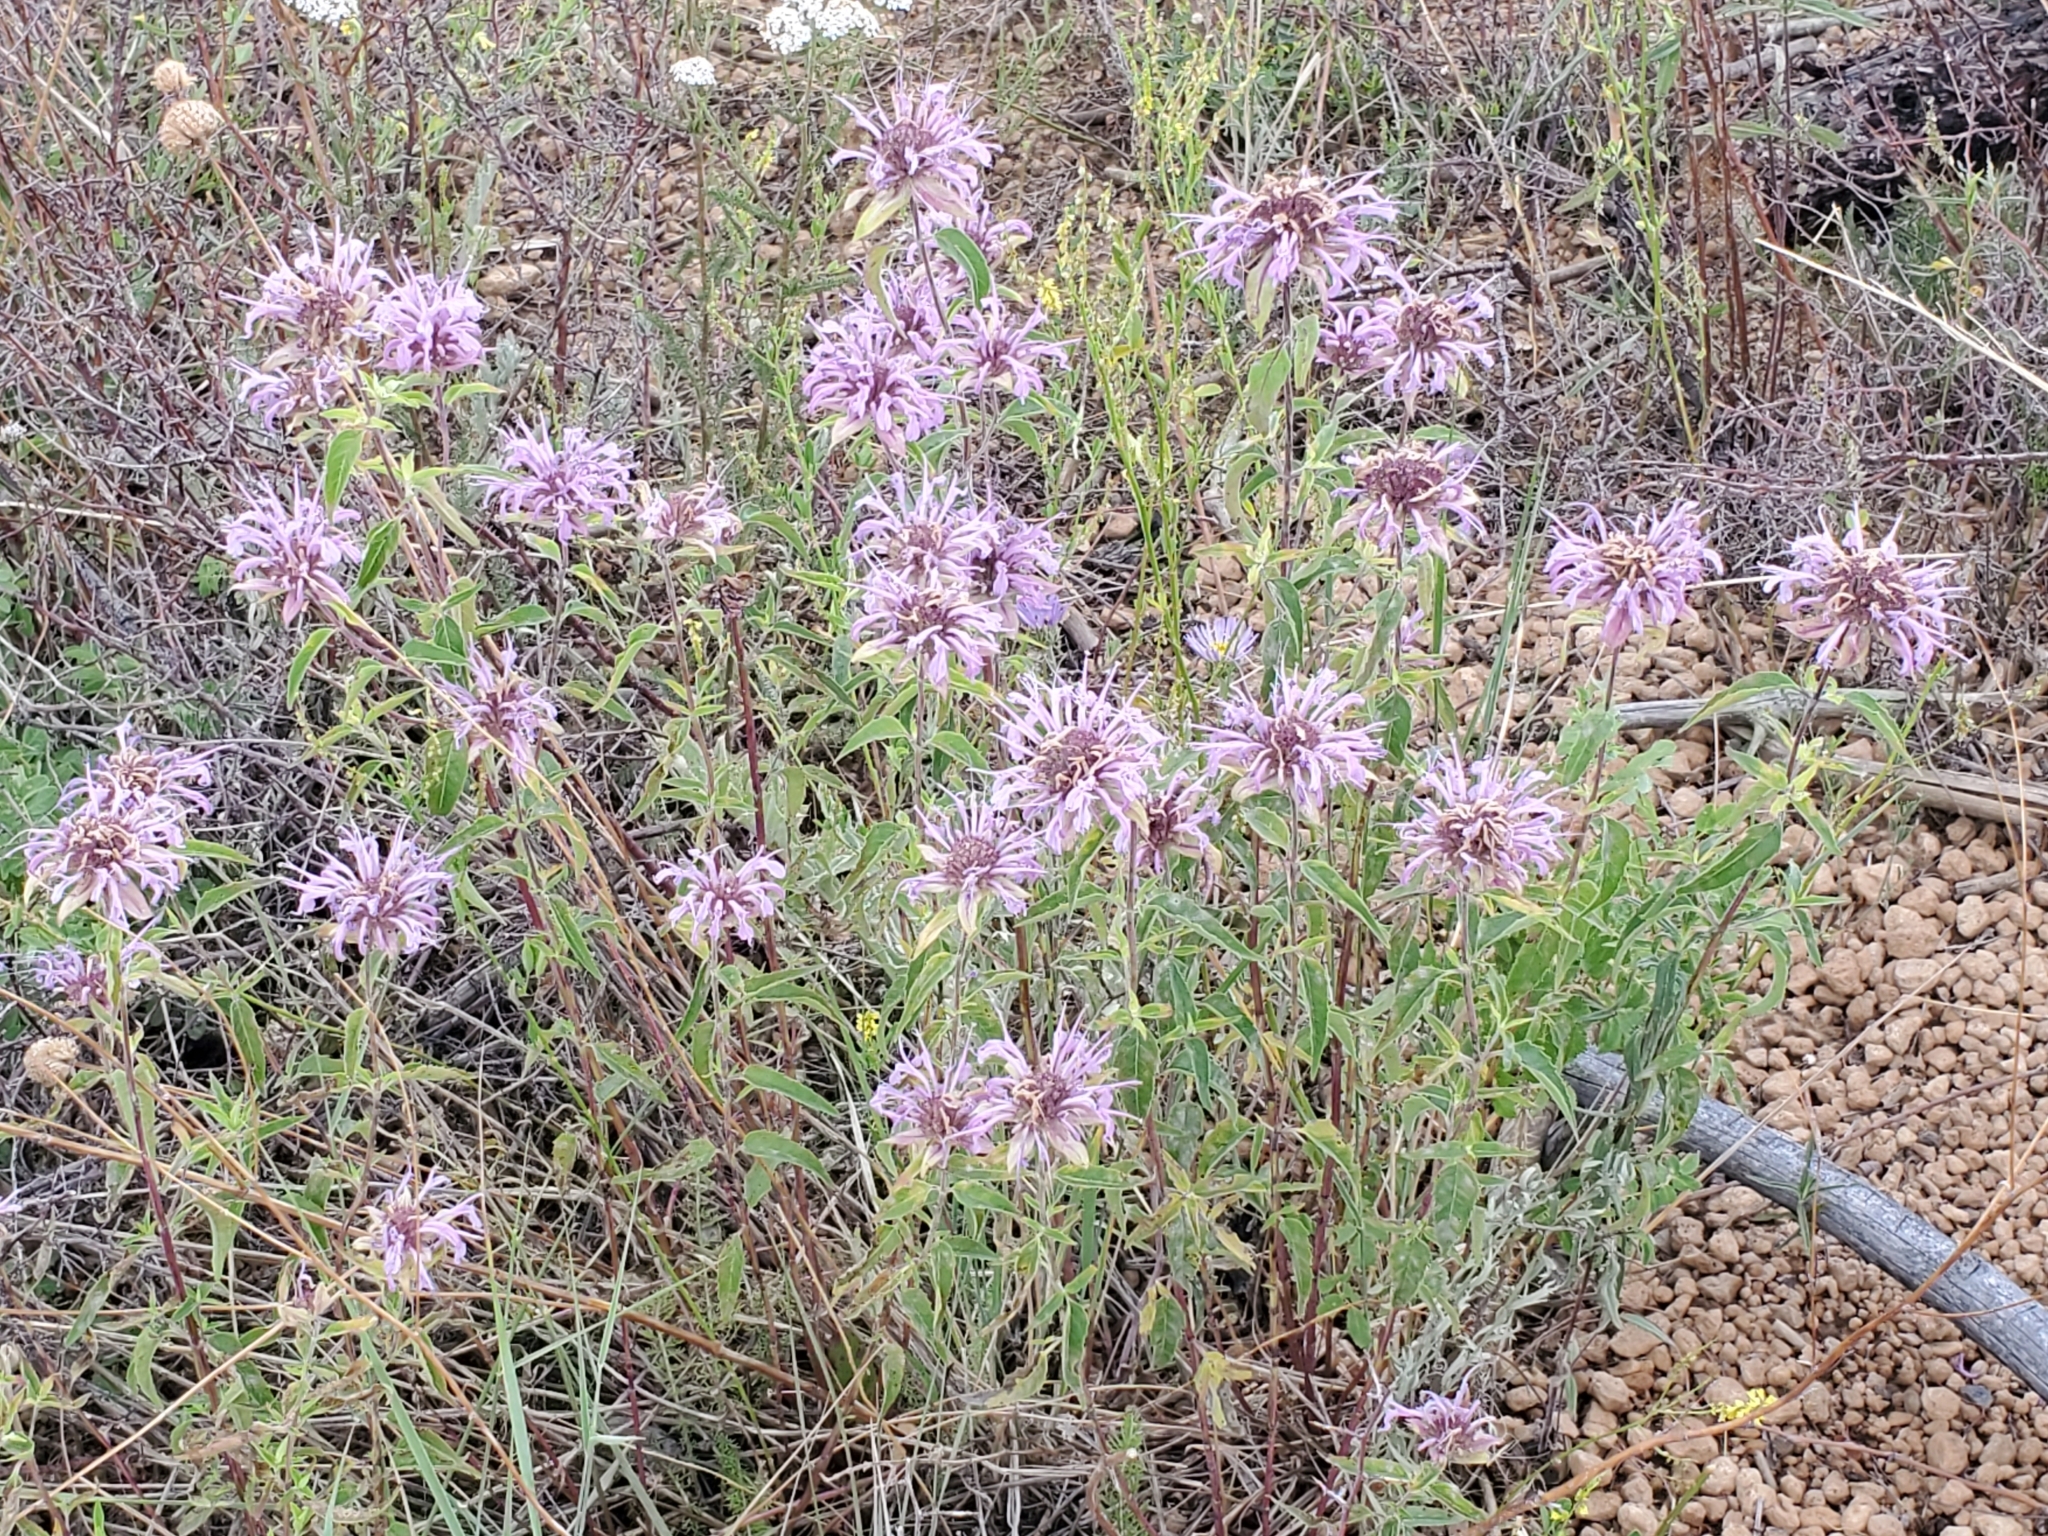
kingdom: Plantae
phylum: Tracheophyta
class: Magnoliopsida
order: Lamiales
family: Lamiaceae
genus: Monarda
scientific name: Monarda fistulosa
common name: Purple beebalm
